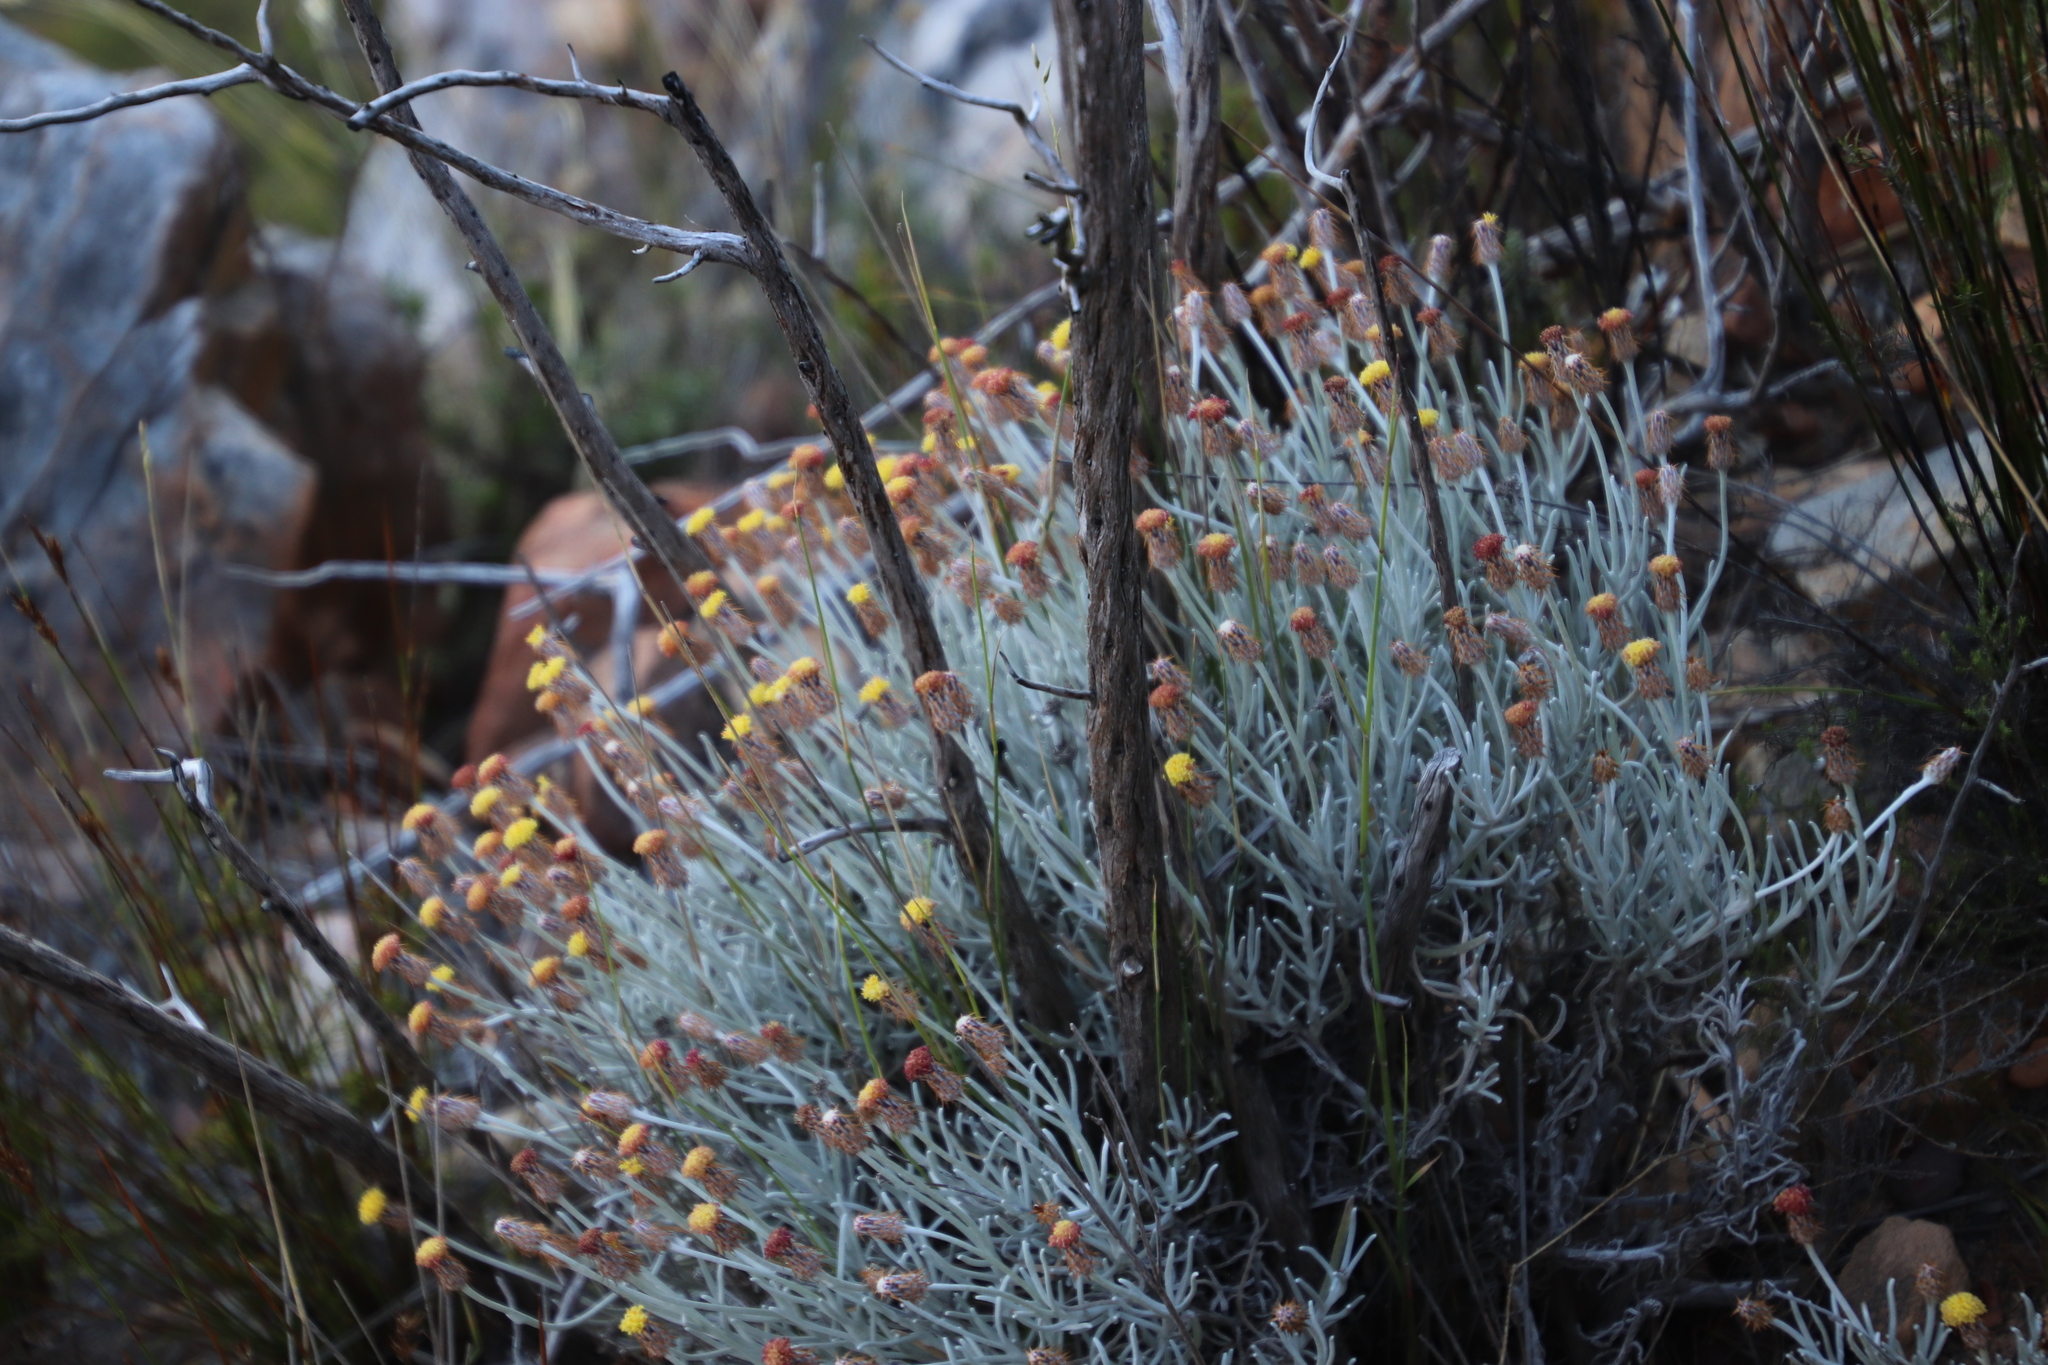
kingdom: Plantae
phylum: Tracheophyta
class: Magnoliopsida
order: Asterales
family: Asteraceae
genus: Syncarpha
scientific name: Syncarpha gnaphaloides
